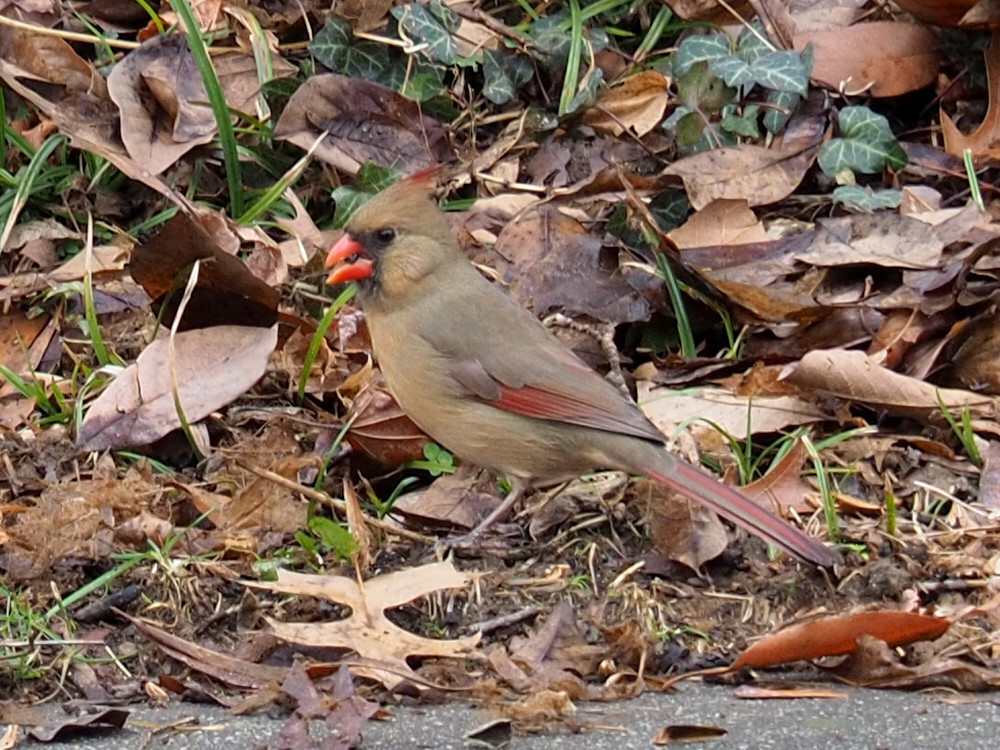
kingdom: Animalia
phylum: Chordata
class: Aves
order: Passeriformes
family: Cardinalidae
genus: Cardinalis
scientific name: Cardinalis cardinalis
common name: Northern cardinal
